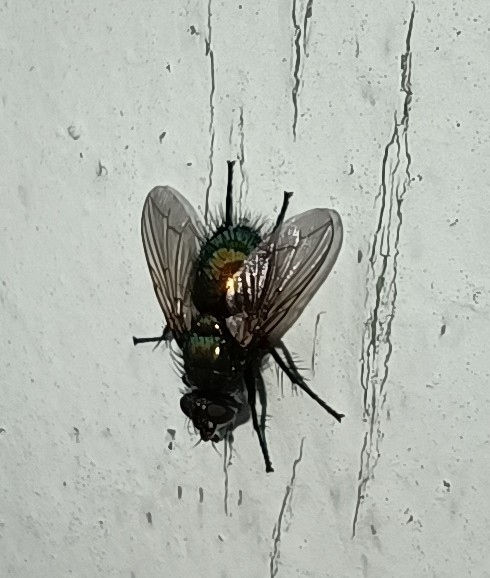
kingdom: Animalia
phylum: Arthropoda
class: Insecta
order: Diptera
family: Tachinidae
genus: Gymnocheta
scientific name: Gymnocheta viridis
